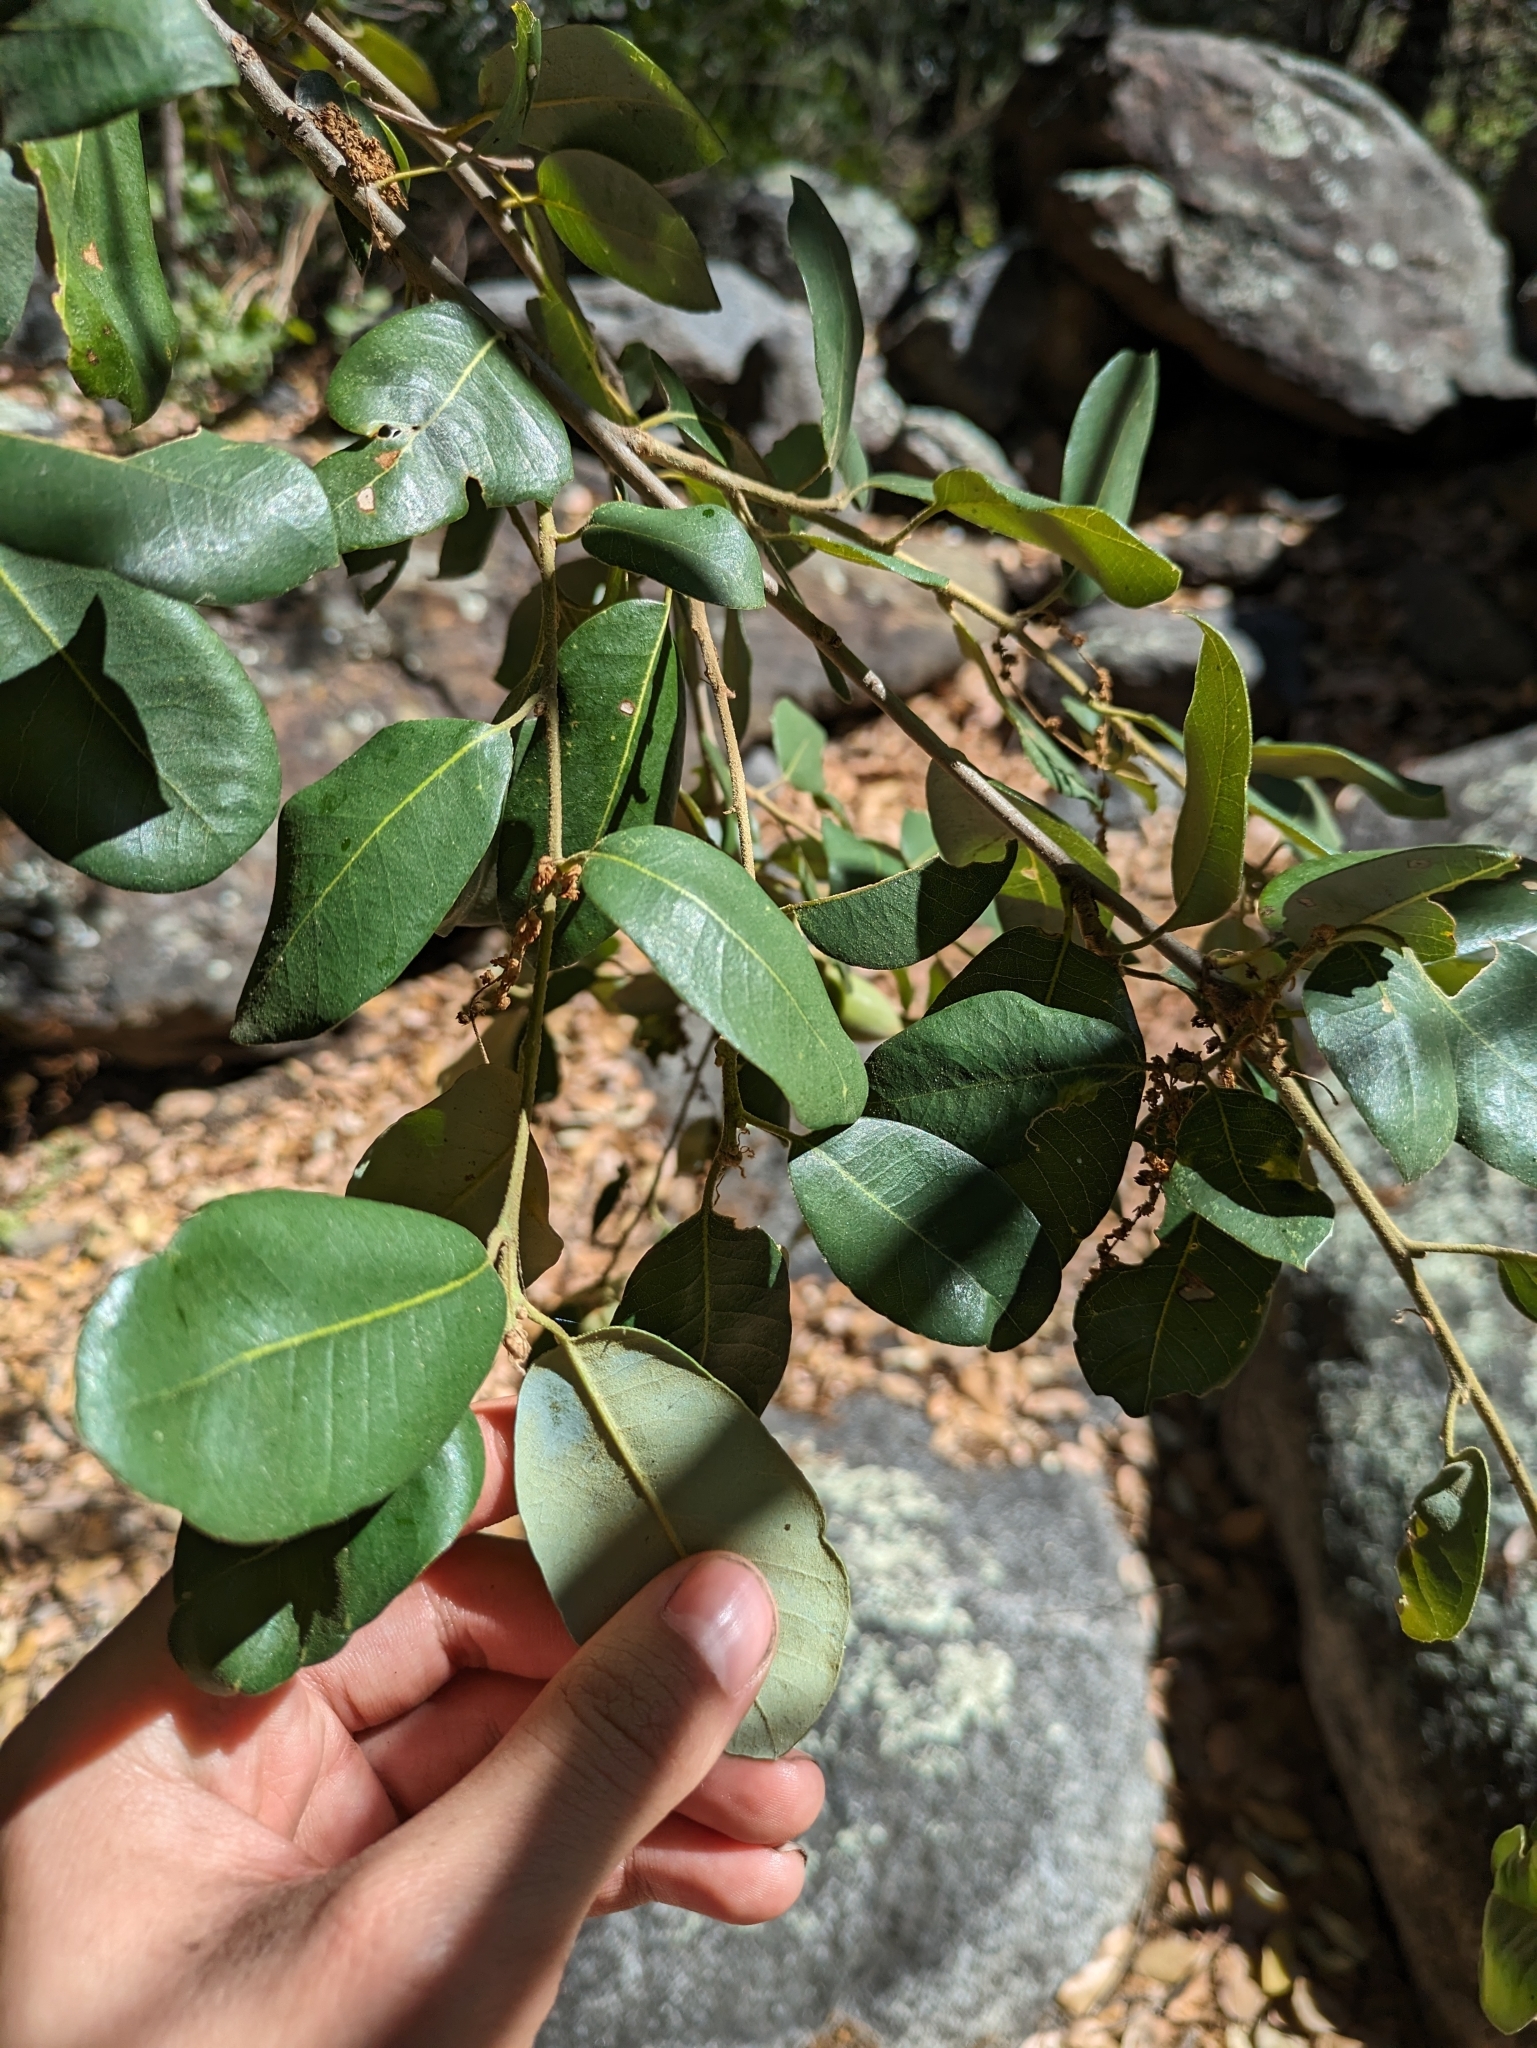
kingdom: Plantae
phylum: Tracheophyta
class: Magnoliopsida
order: Fagales
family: Fagaceae
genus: Quercus
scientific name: Quercus chrysolepis
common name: Canyon live oak
